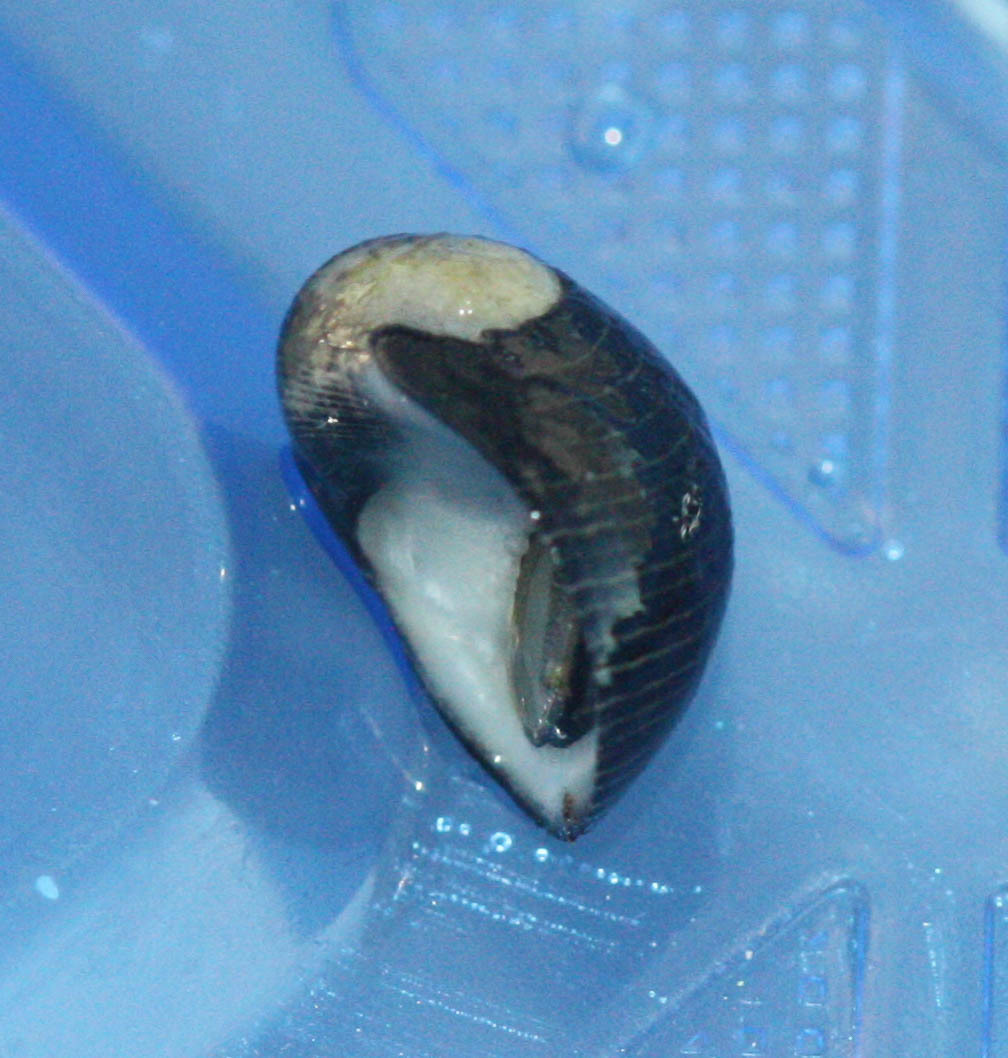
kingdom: Animalia
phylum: Mollusca
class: Gastropoda
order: Cycloneritida
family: Neritidae
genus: Nerita
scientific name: Nerita picea
